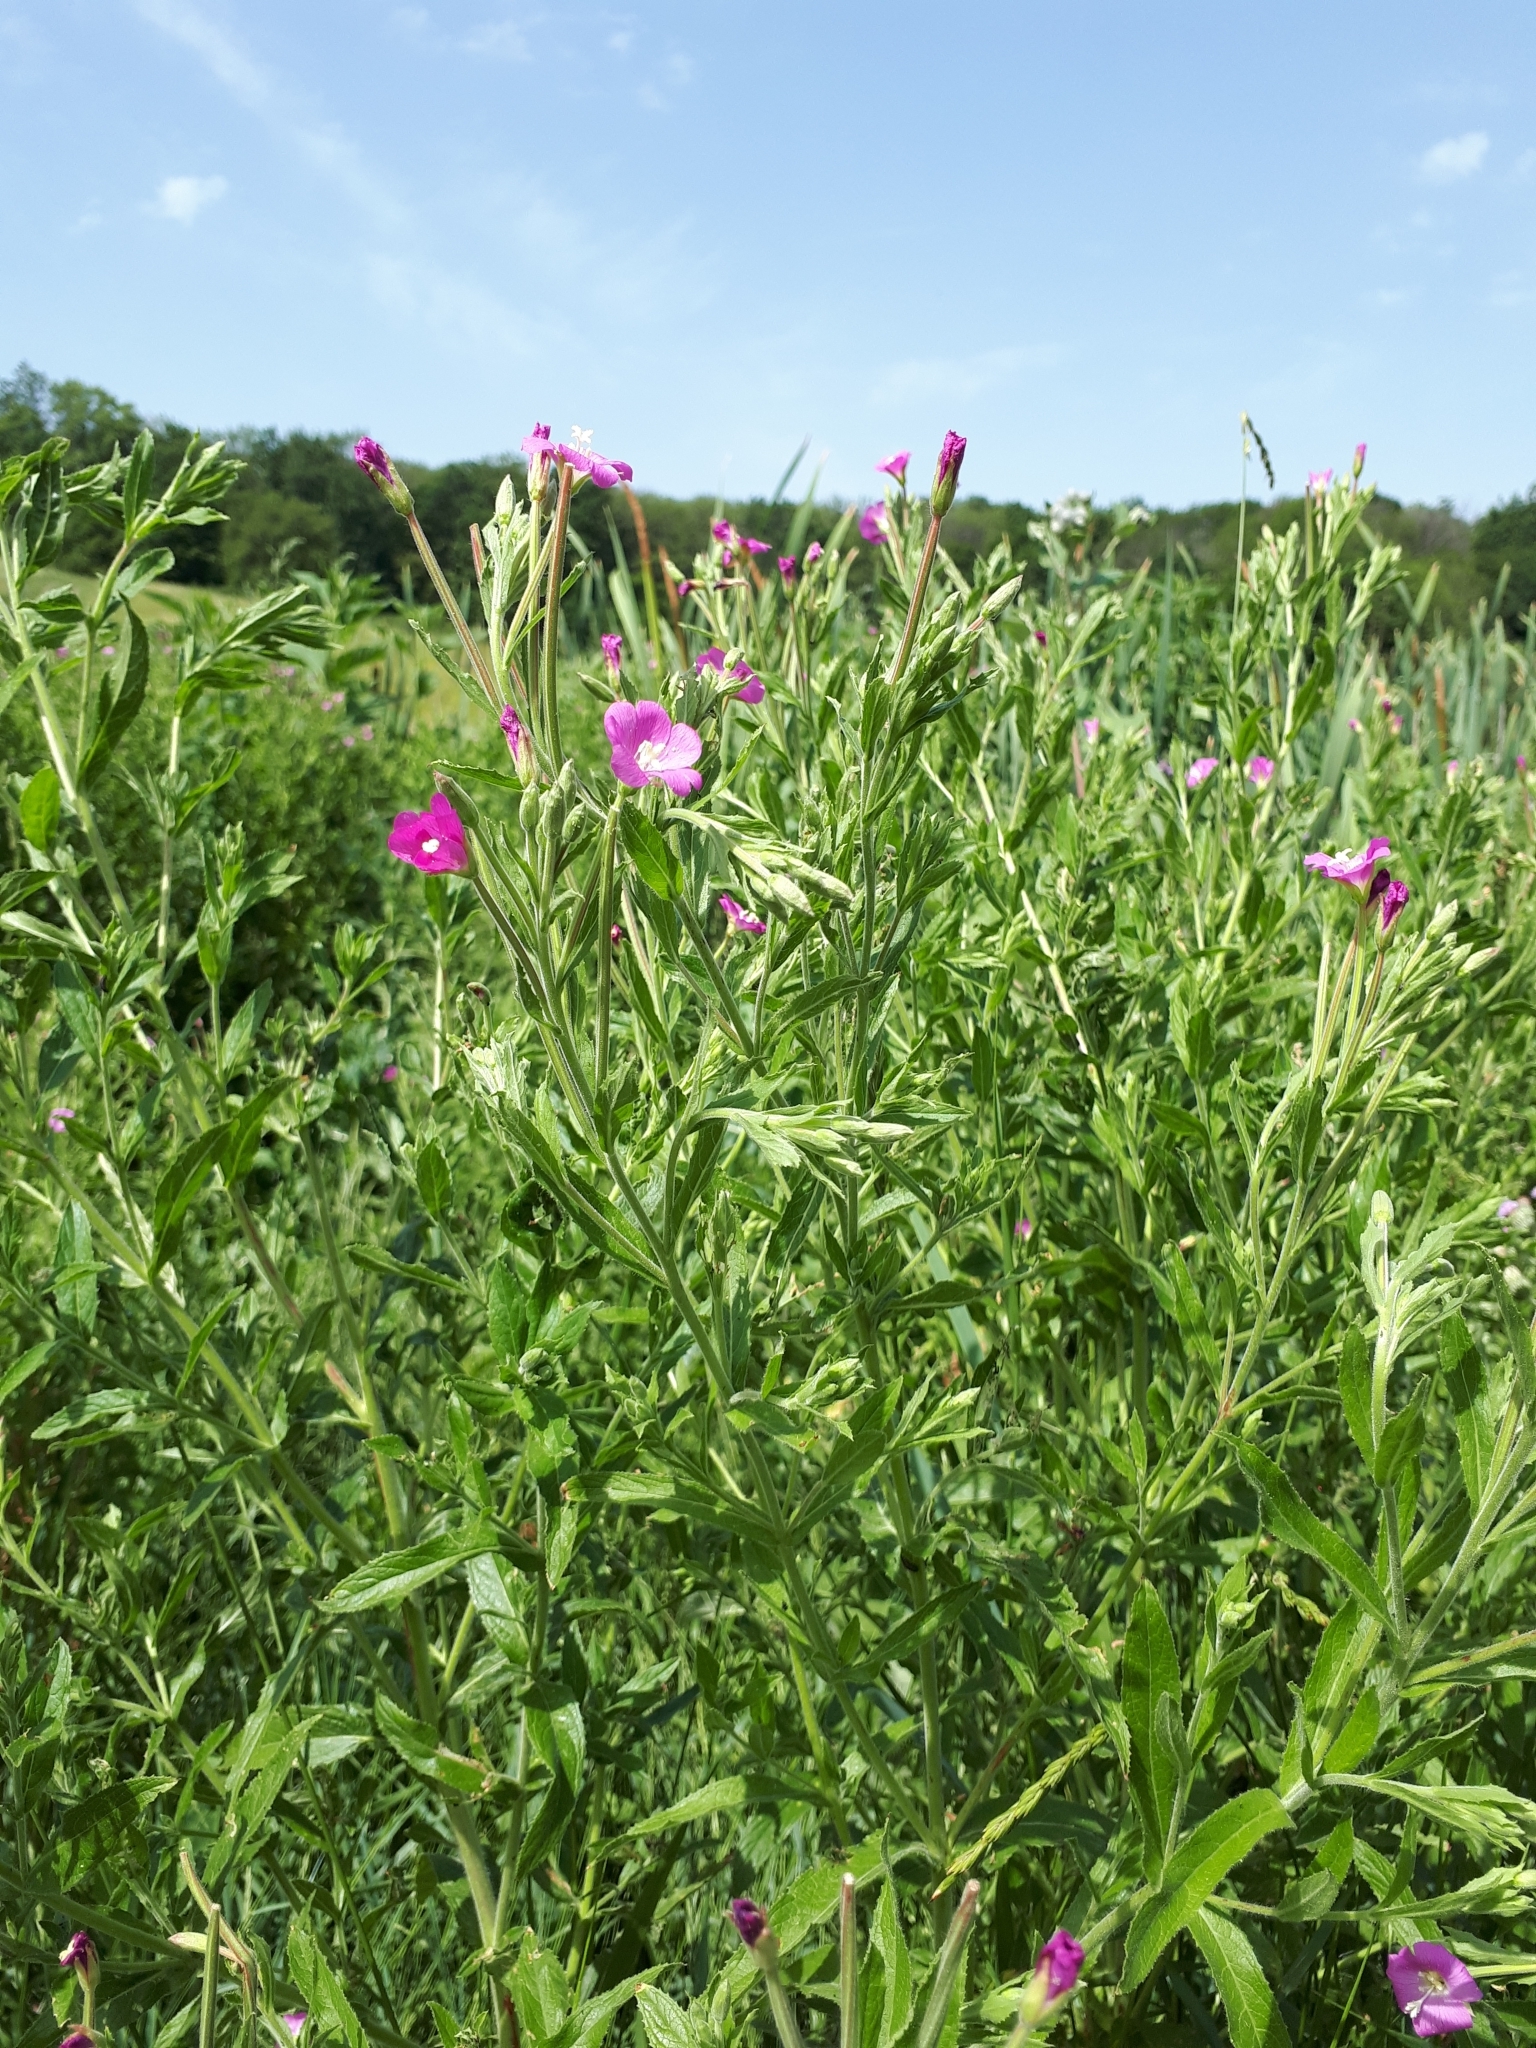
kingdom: Plantae
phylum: Tracheophyta
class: Magnoliopsida
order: Myrtales
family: Onagraceae
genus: Epilobium
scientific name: Epilobium hirsutum
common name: Great willowherb
